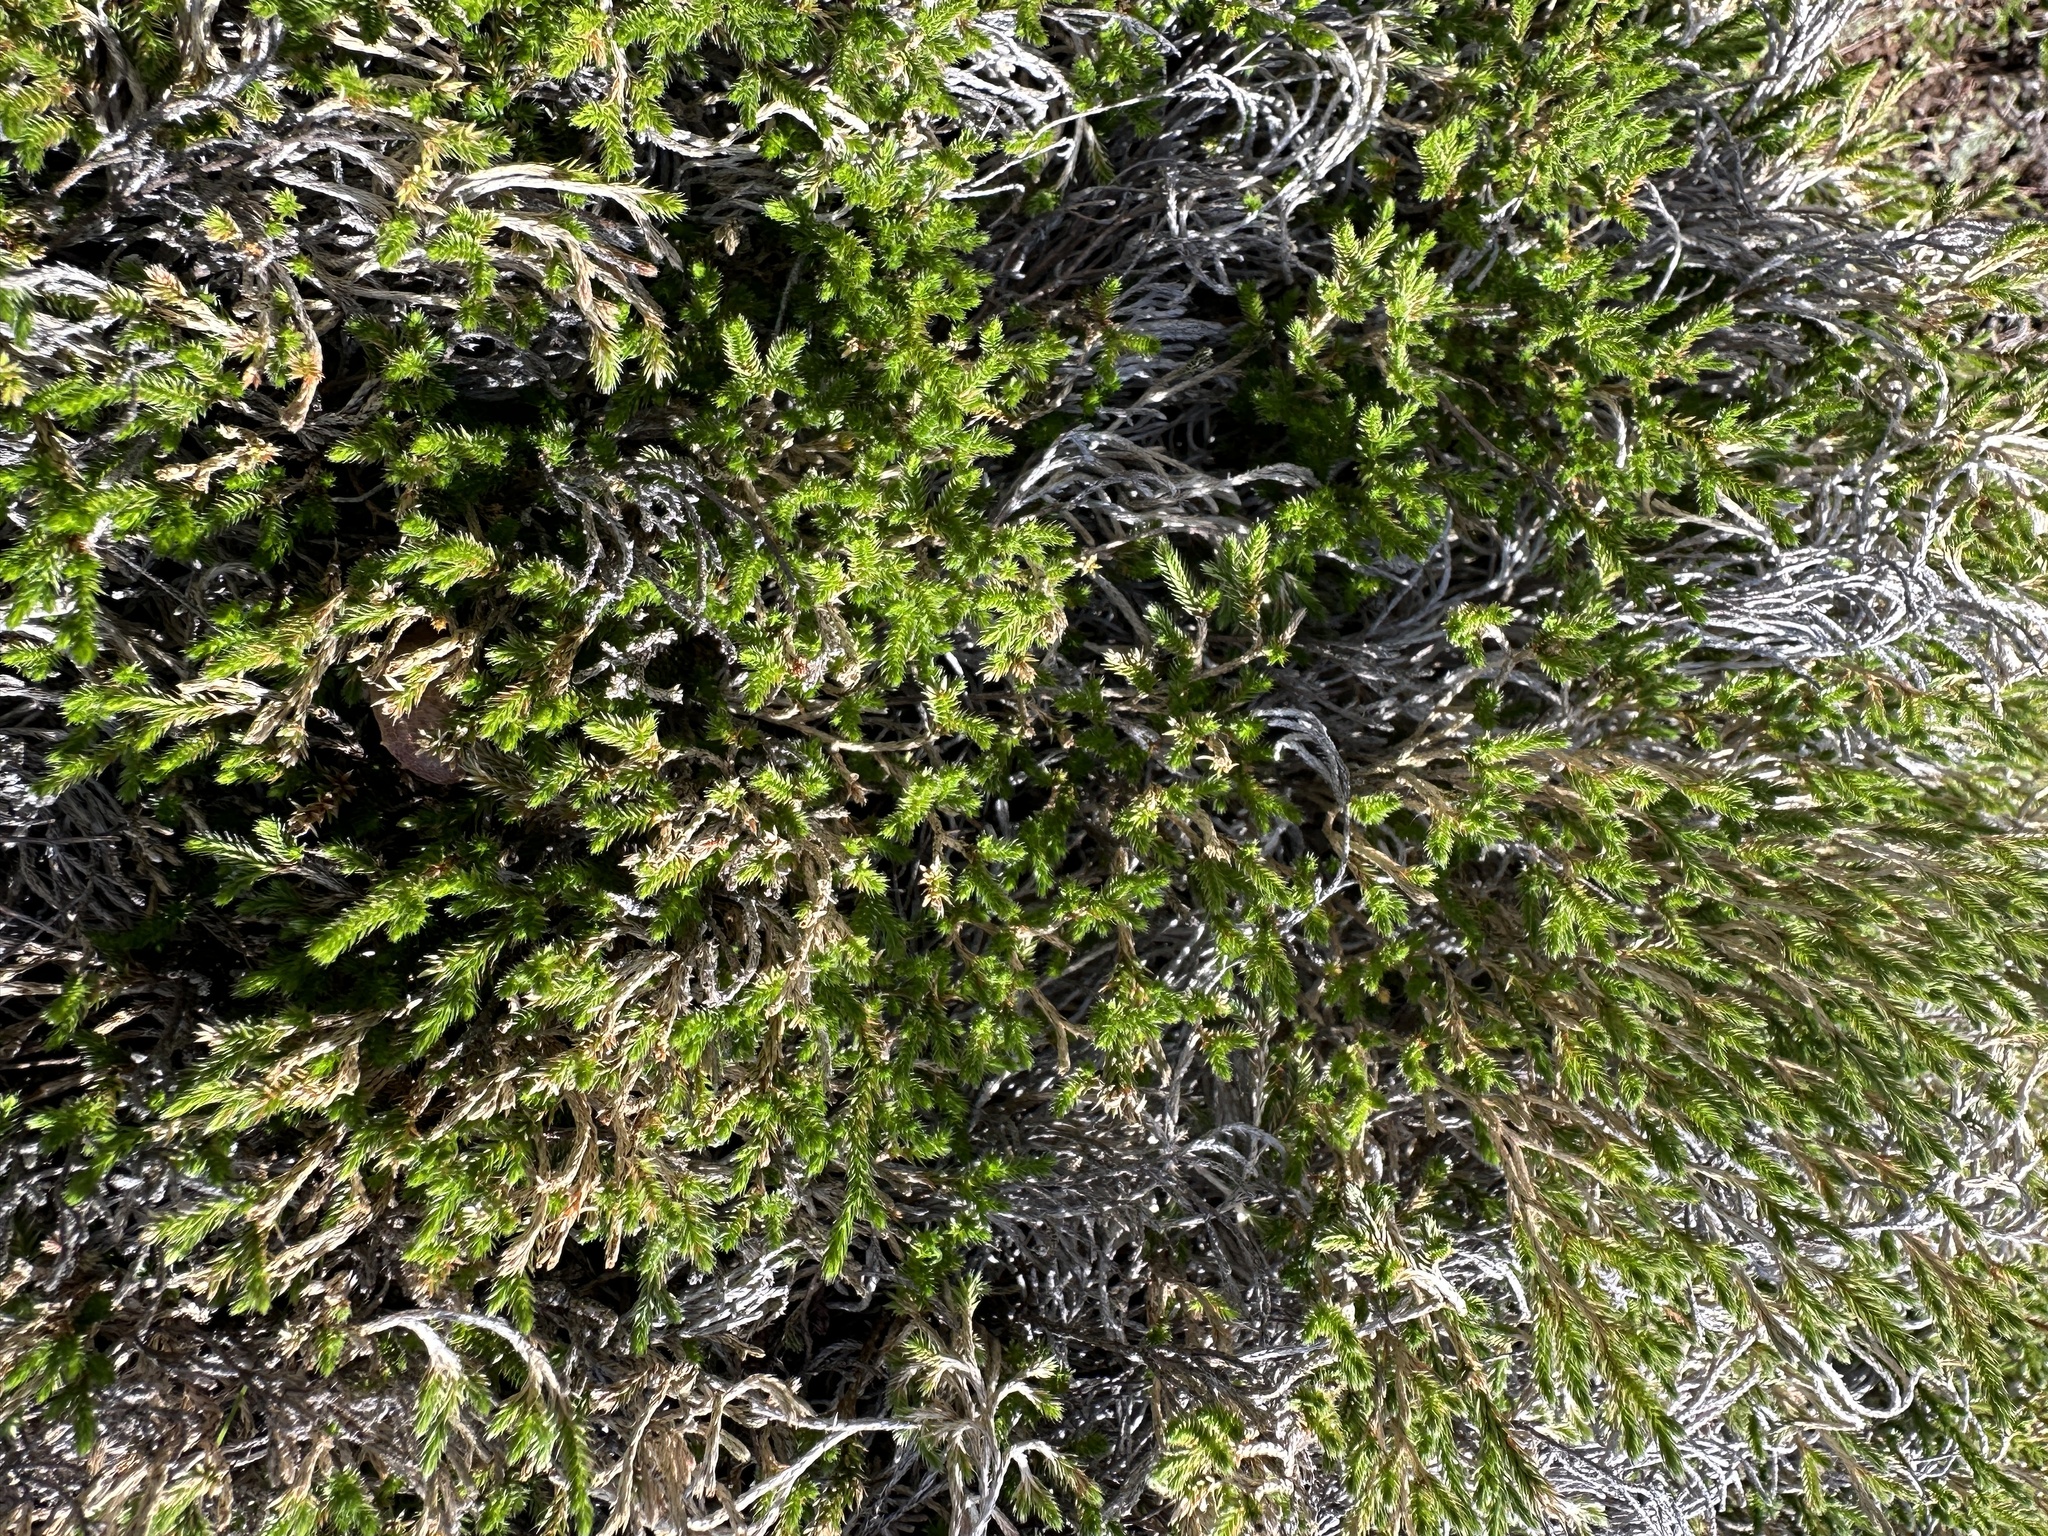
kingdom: Plantae
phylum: Tracheophyta
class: Lycopodiopsida
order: Selaginellales
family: Selaginellaceae
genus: Selaginella
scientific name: Selaginella bigelovii
